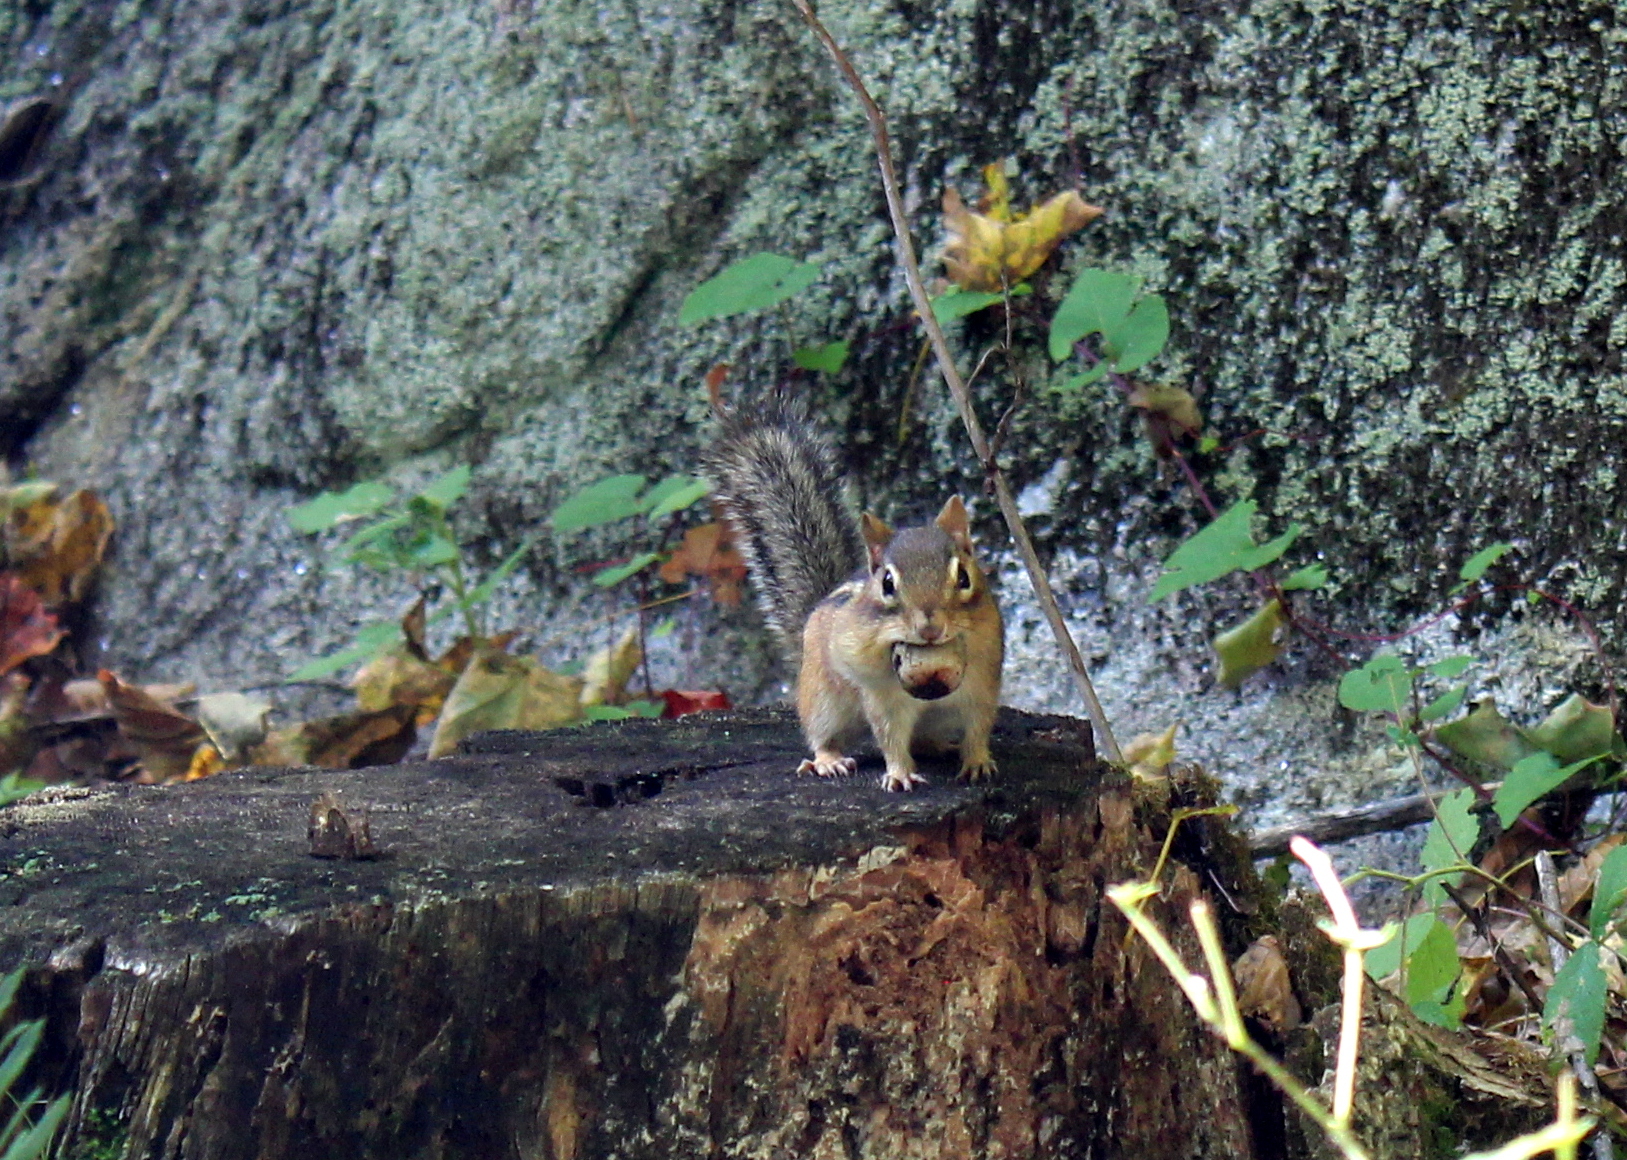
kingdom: Animalia
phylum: Chordata
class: Mammalia
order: Rodentia
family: Sciuridae
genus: Tamias
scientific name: Tamias striatus
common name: Eastern chipmunk
